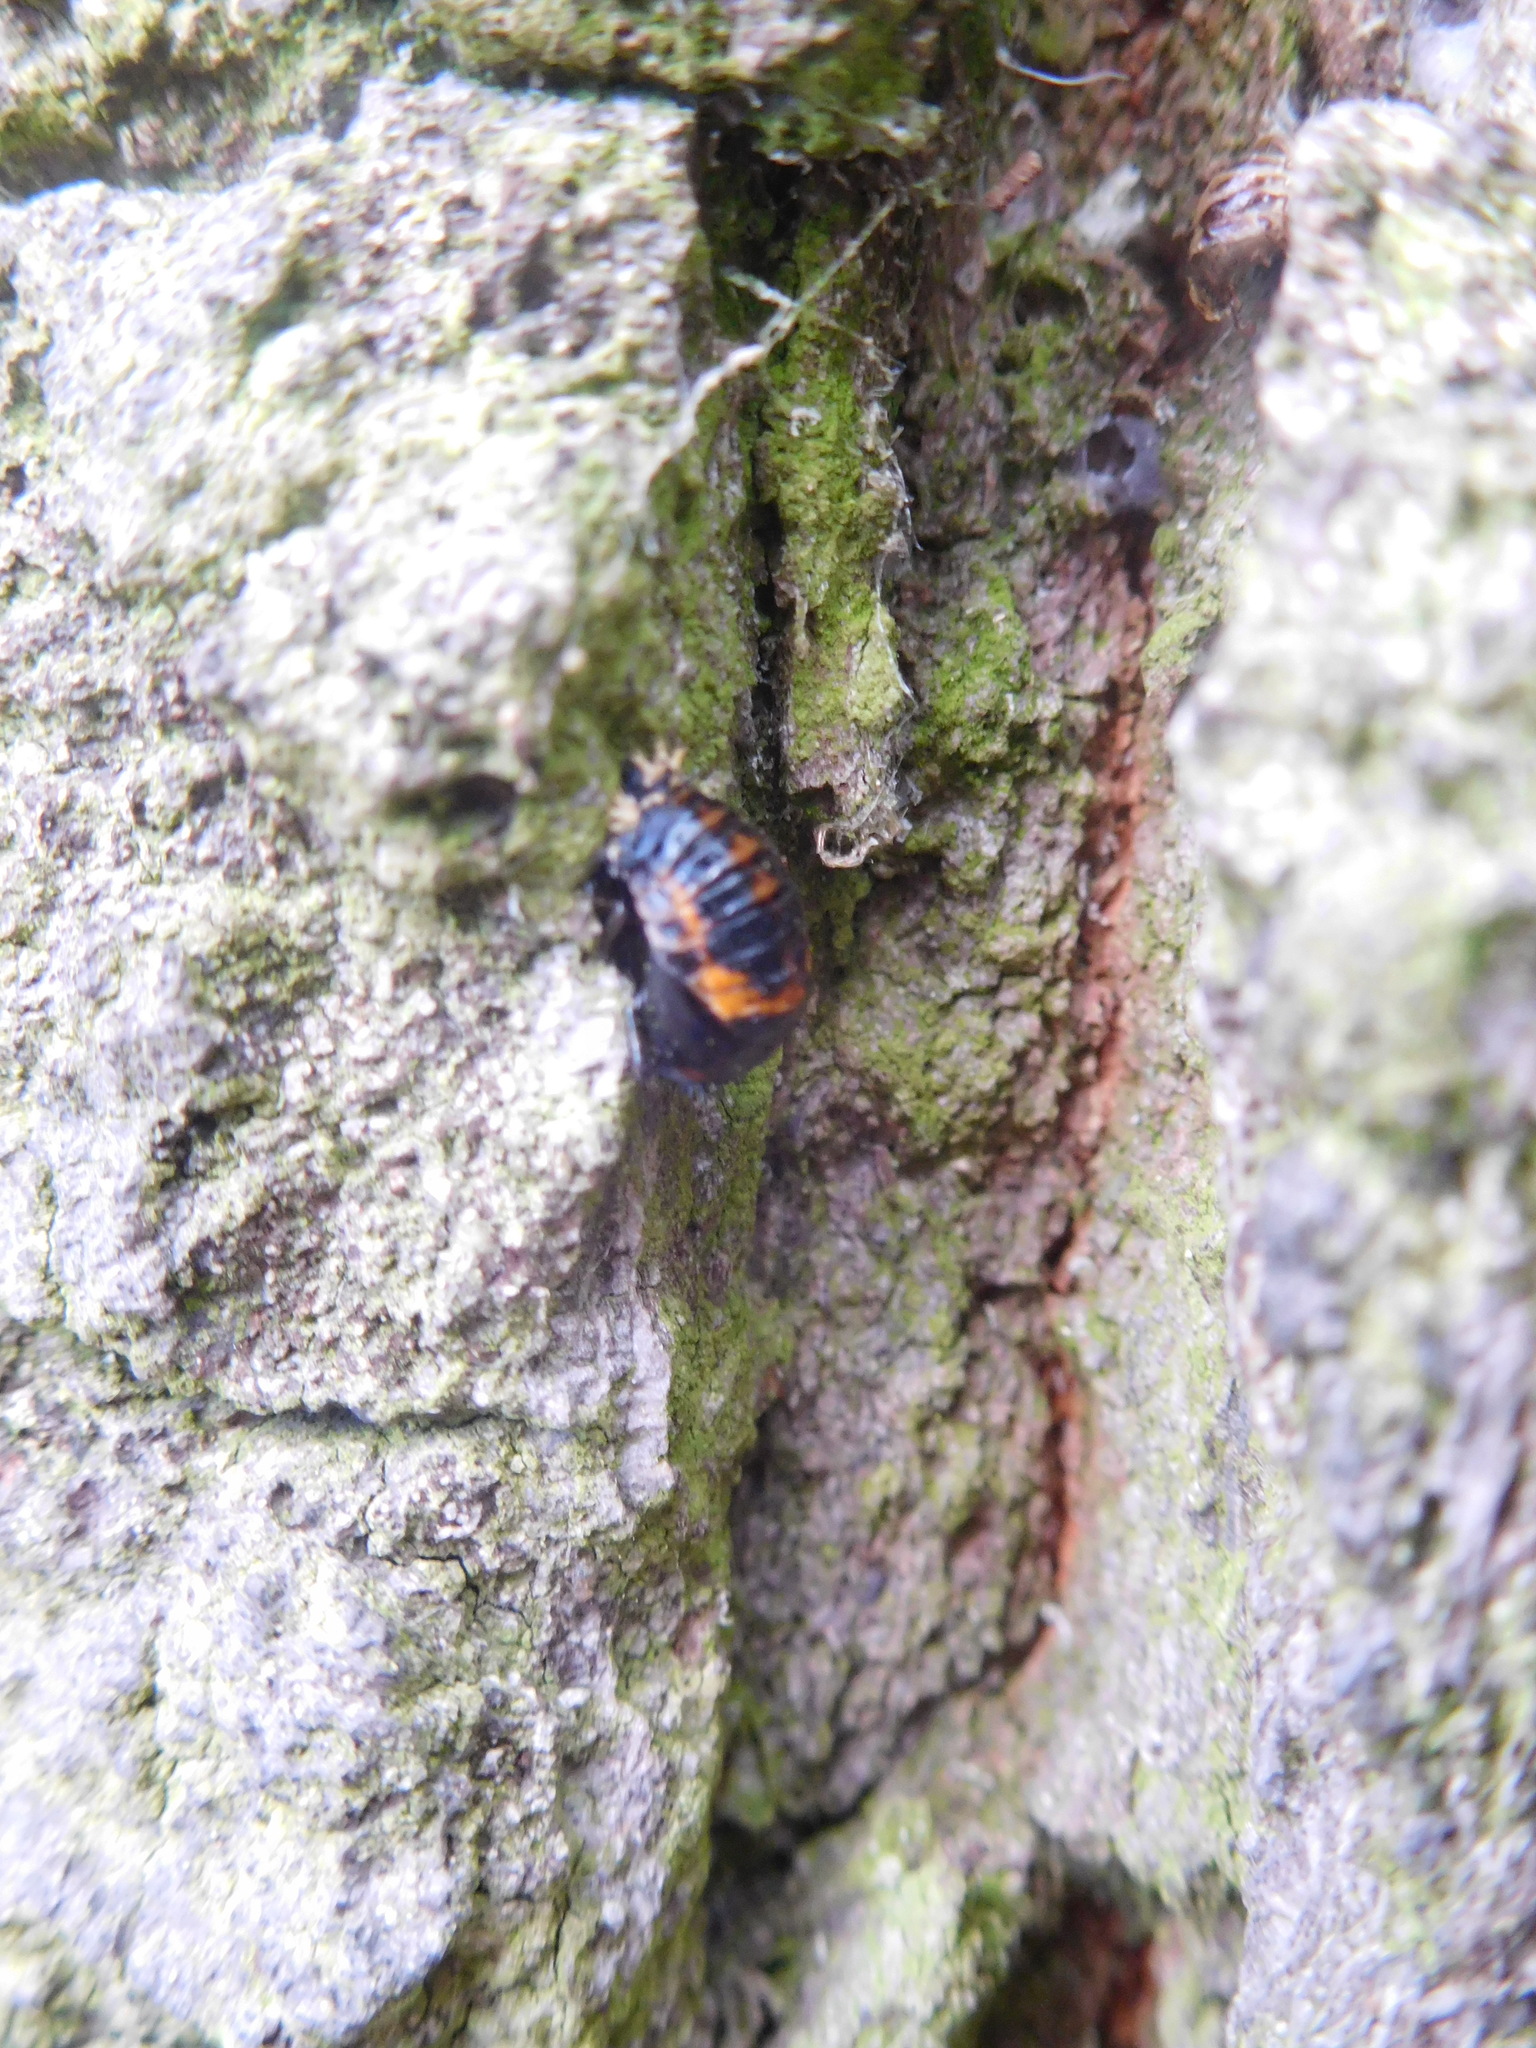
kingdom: Animalia
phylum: Arthropoda
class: Insecta
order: Coleoptera
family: Coccinellidae
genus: Harmonia
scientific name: Harmonia axyridis
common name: Harlequin ladybird
